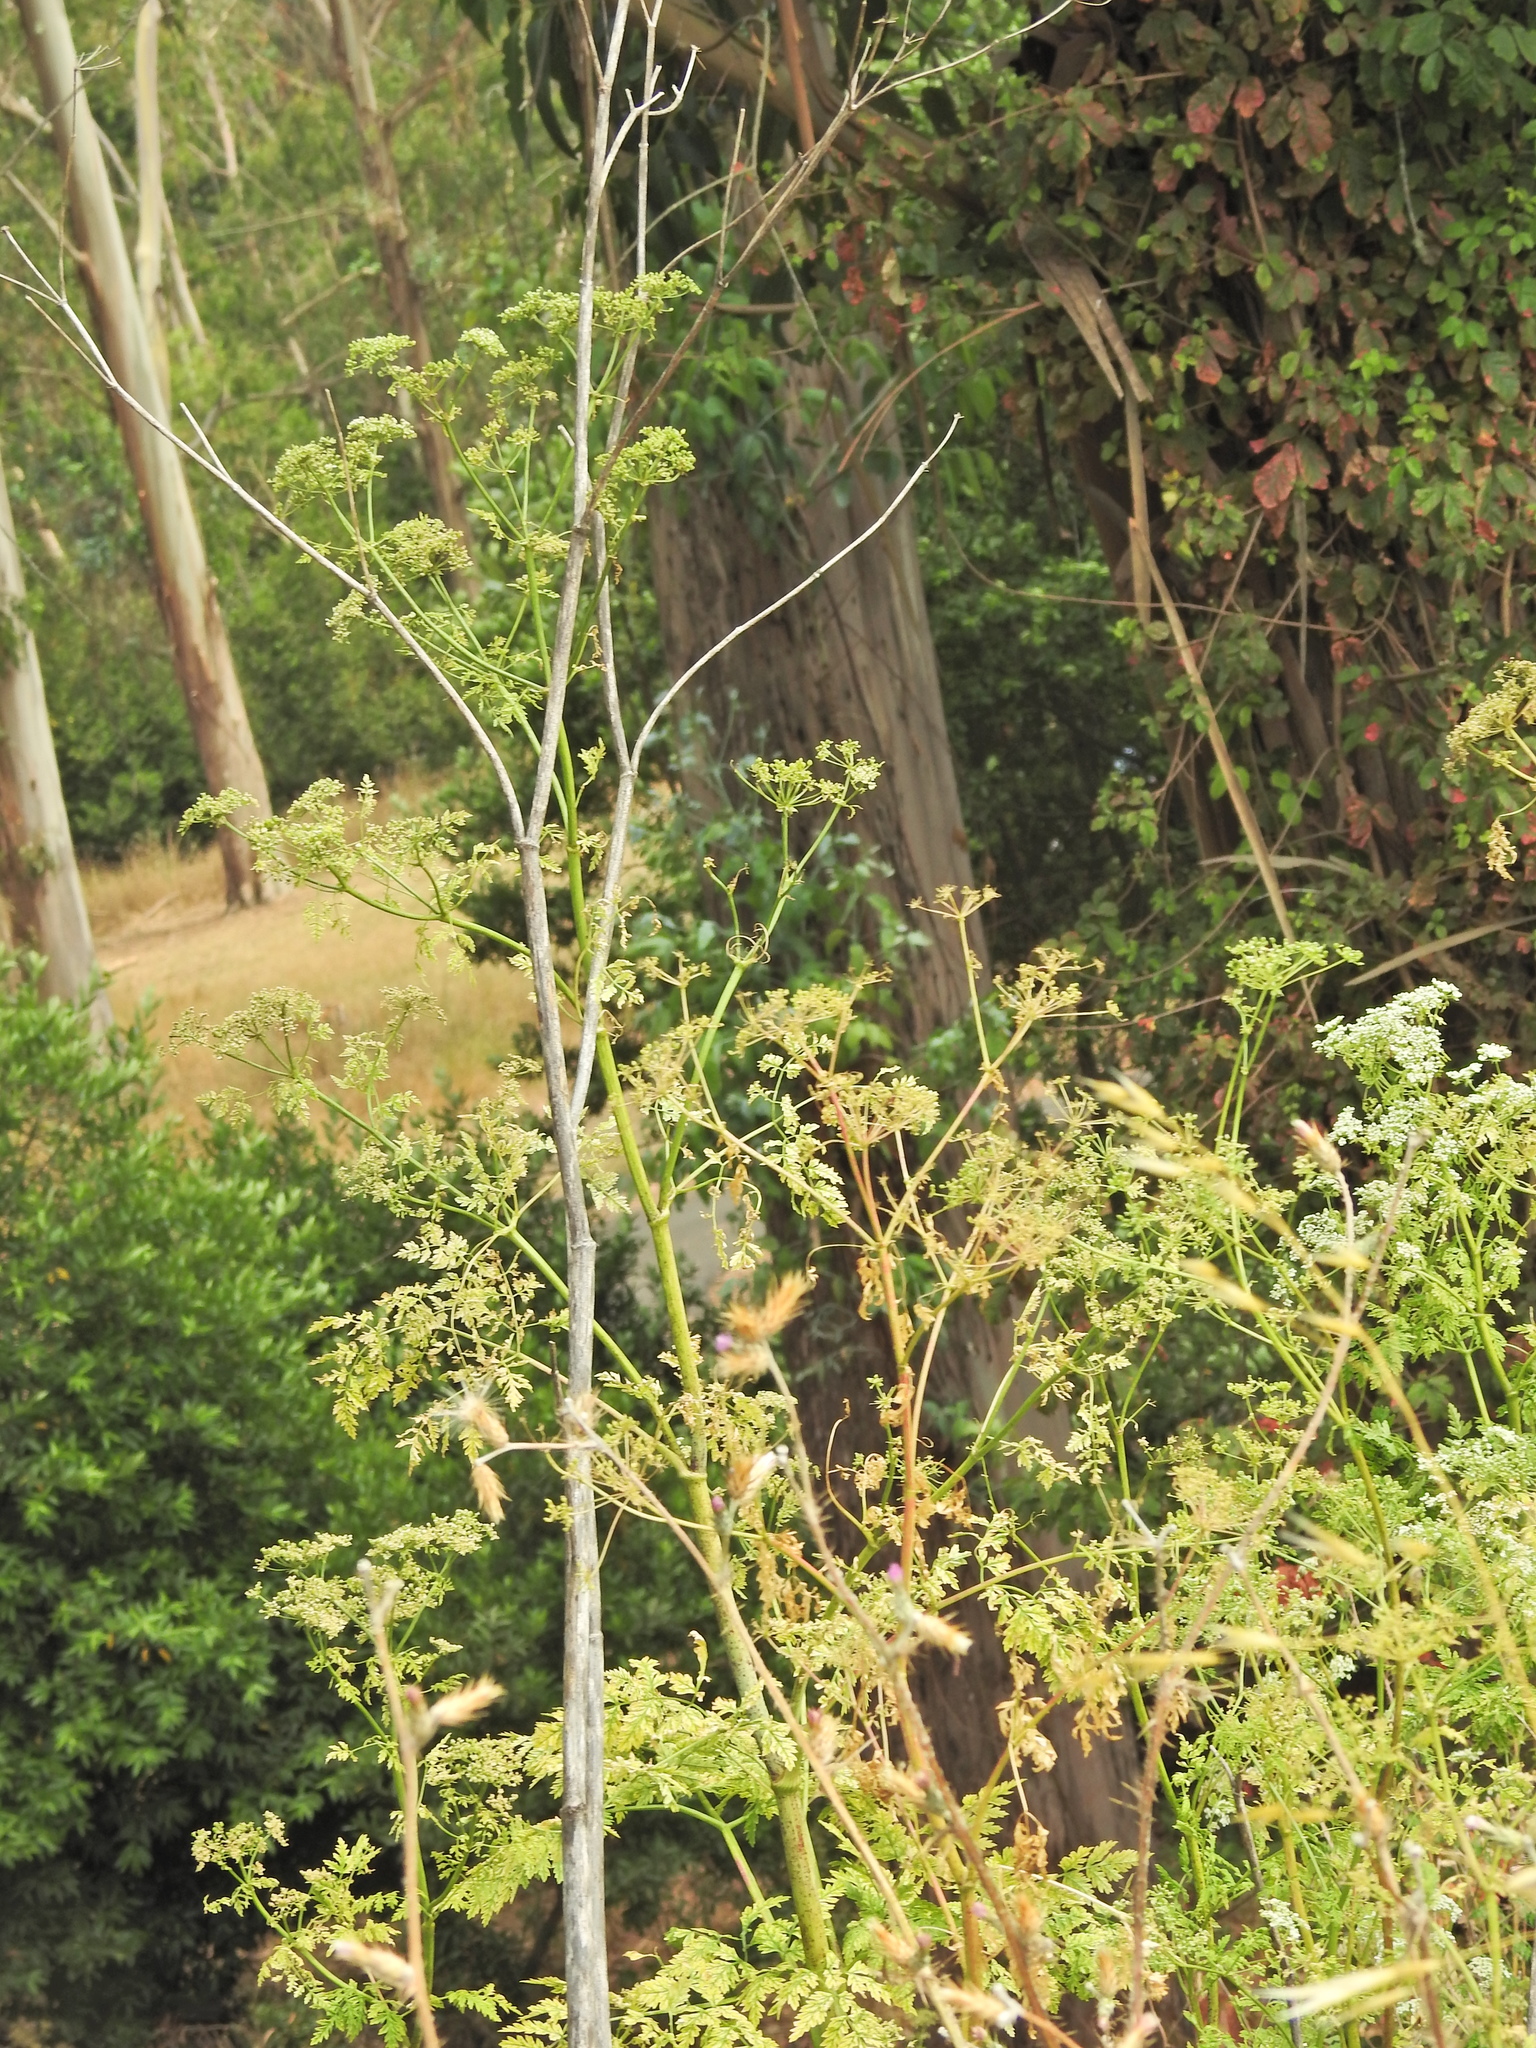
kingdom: Plantae
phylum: Tracheophyta
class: Magnoliopsida
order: Apiales
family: Apiaceae
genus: Conium
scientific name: Conium maculatum
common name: Hemlock
